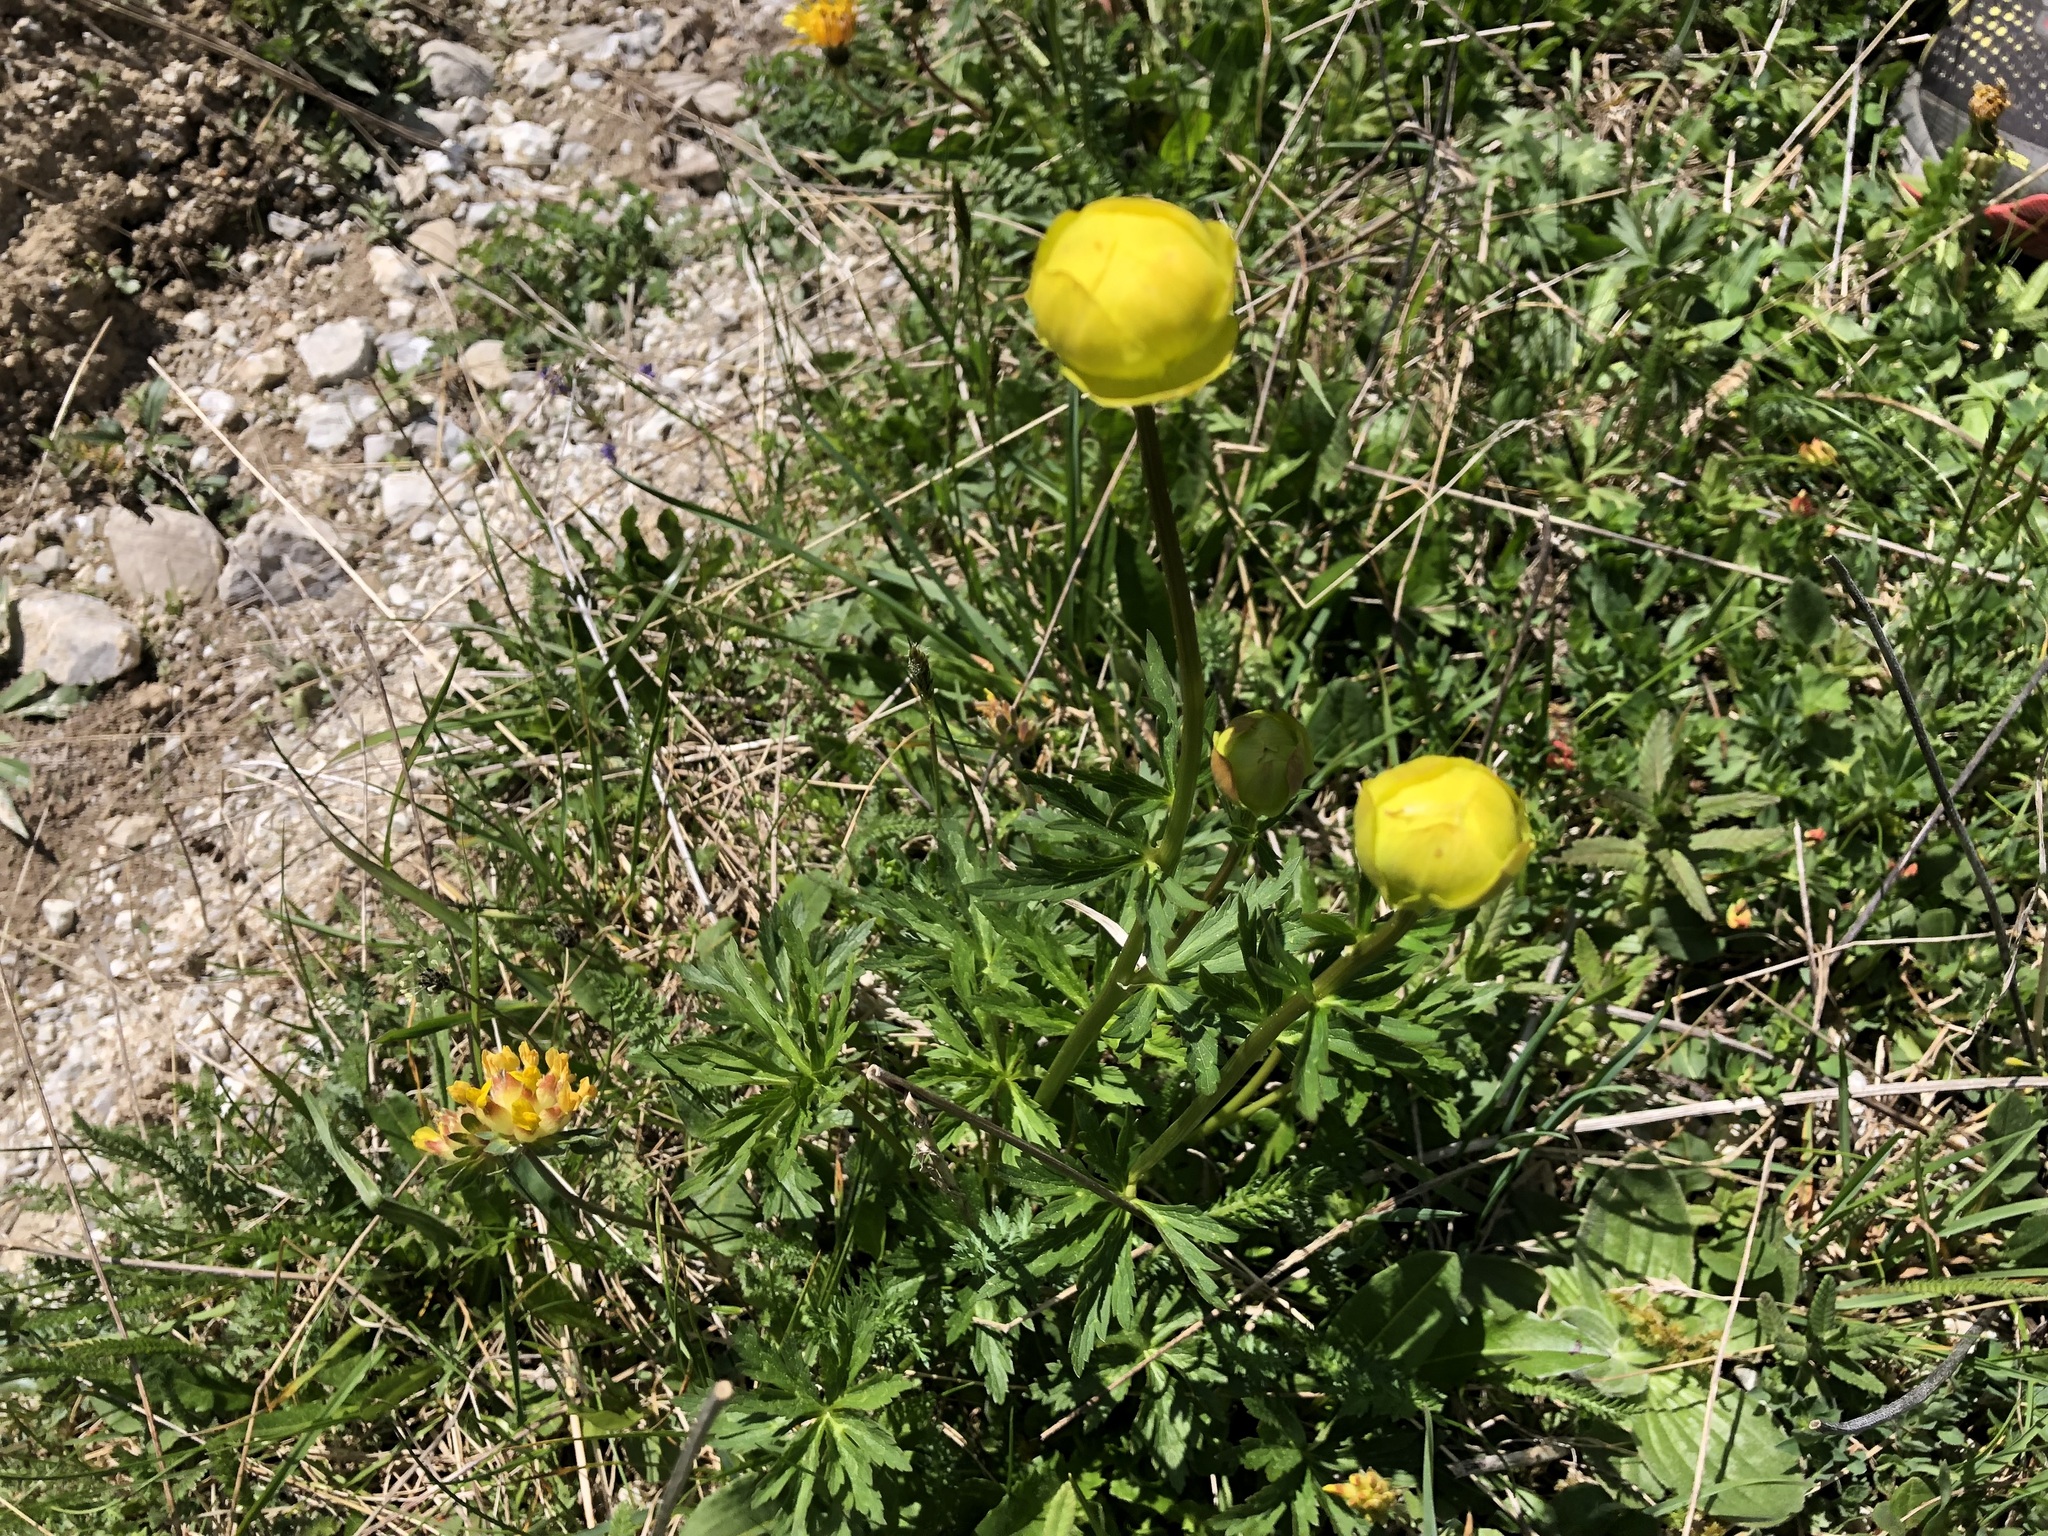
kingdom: Plantae
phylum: Tracheophyta
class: Magnoliopsida
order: Ranunculales
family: Ranunculaceae
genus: Trollius
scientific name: Trollius europaeus
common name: European globeflower
